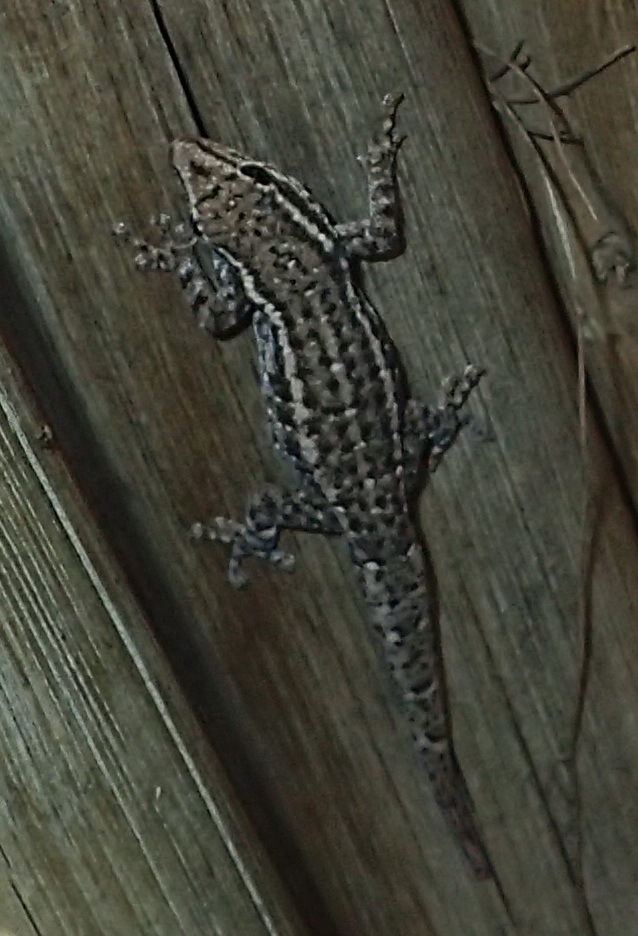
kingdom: Animalia
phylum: Chordata
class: Squamata
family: Gekkonidae
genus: Lygodactylus
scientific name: Lygodactylus capensis
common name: Cape dwarf gecko
